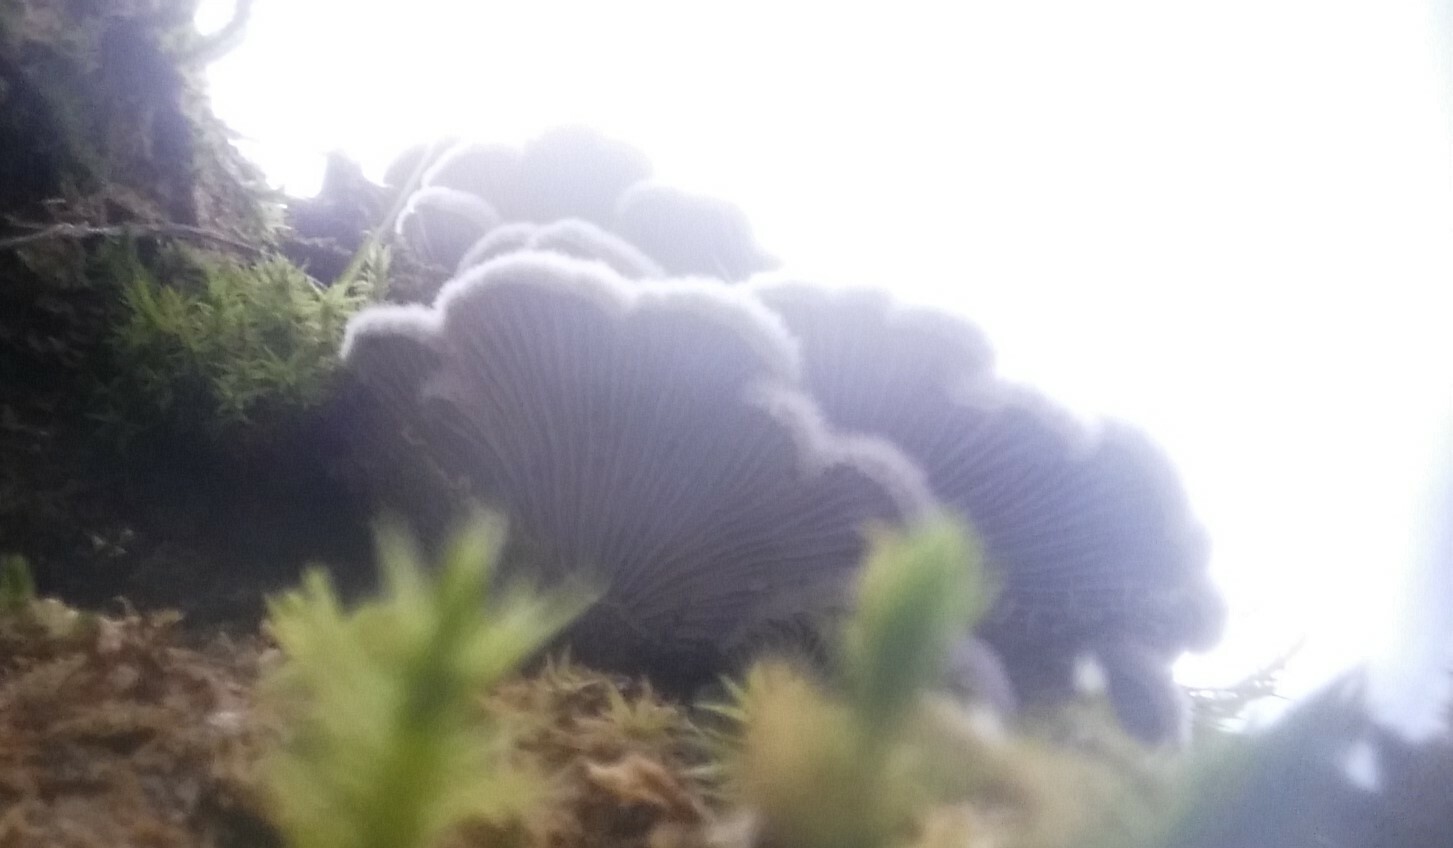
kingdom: Fungi
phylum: Basidiomycota
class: Agaricomycetes
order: Agaricales
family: Schizophyllaceae
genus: Schizophyllum
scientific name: Schizophyllum commune
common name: Common porecrust
